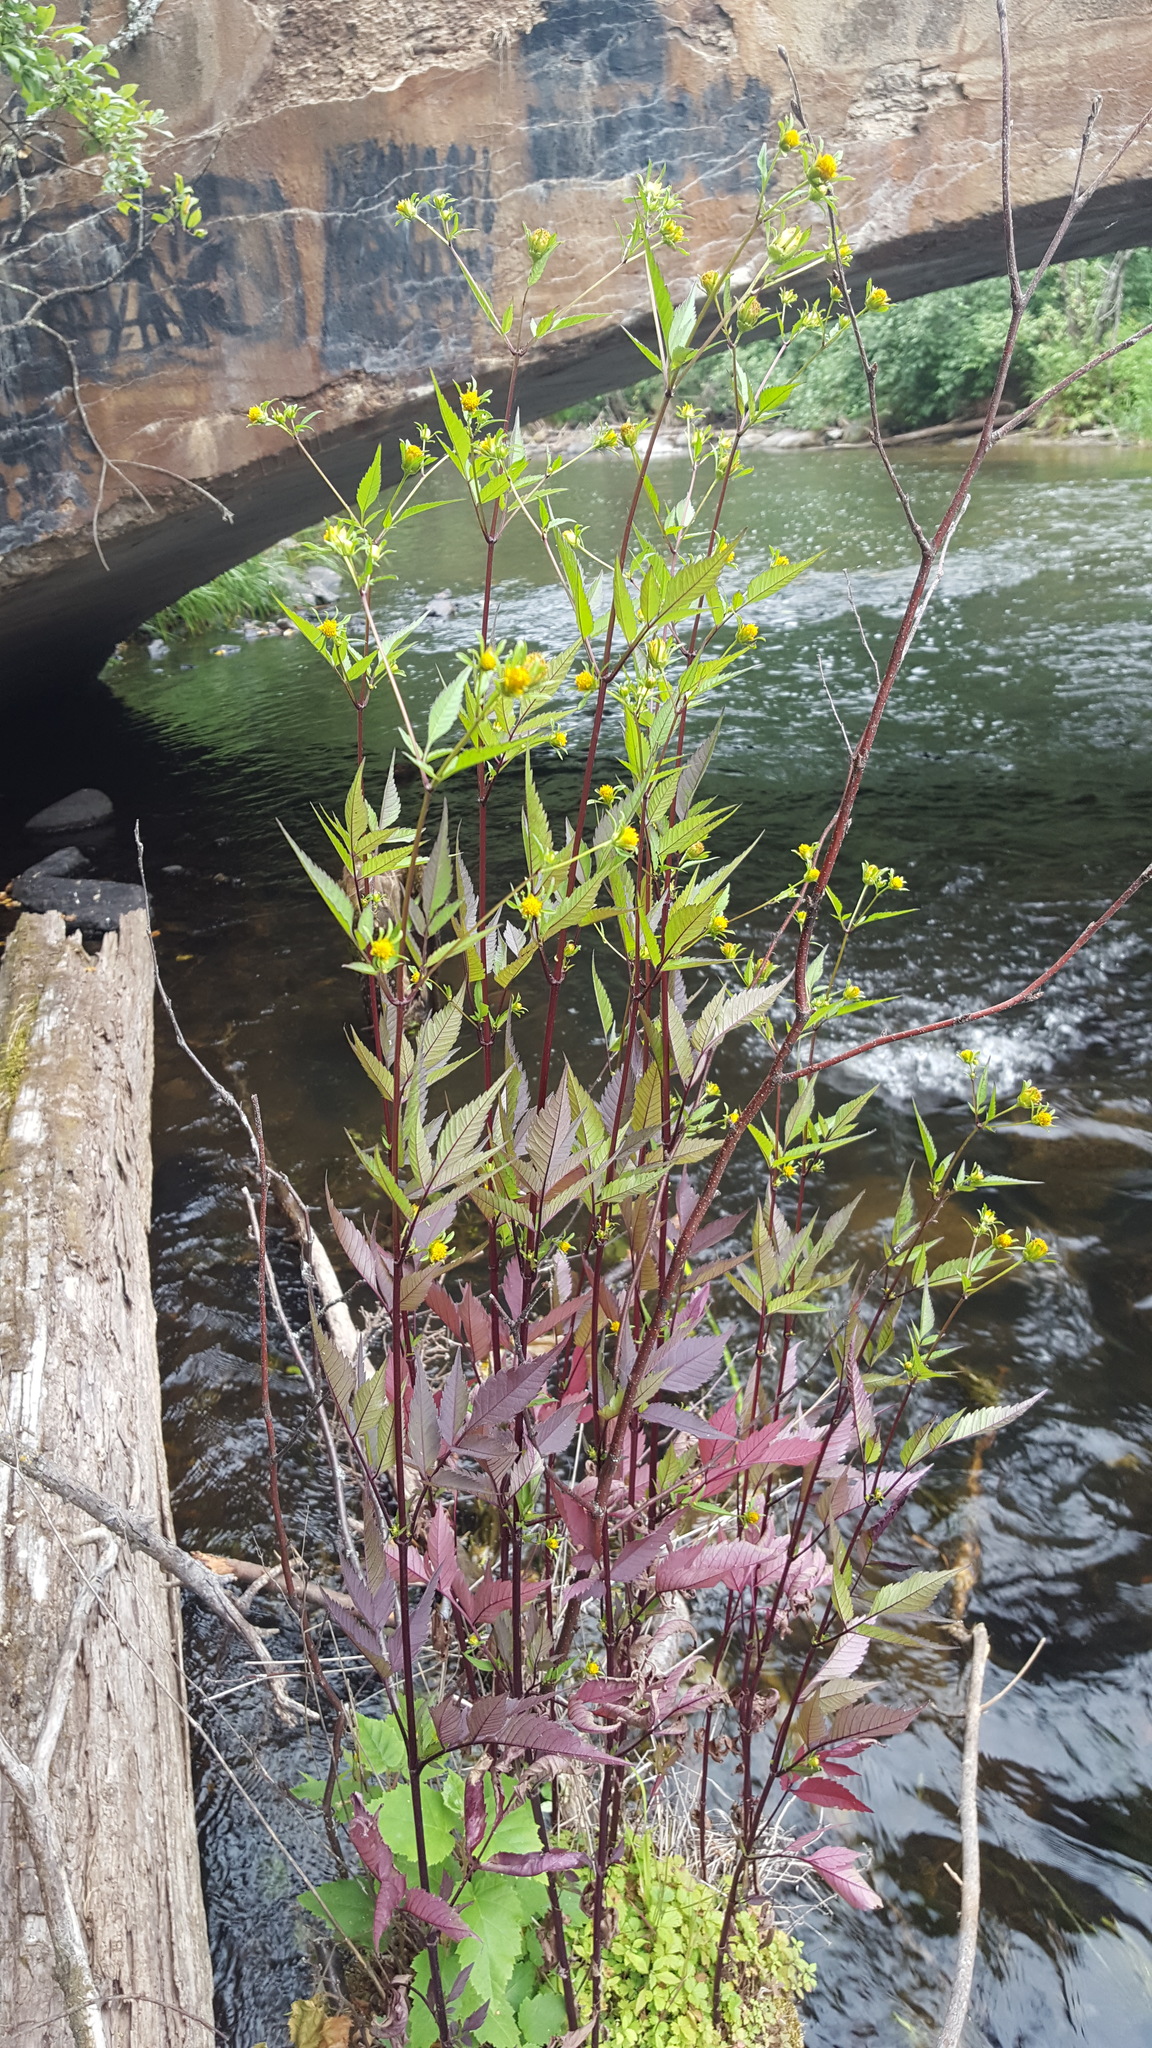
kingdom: Plantae
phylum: Tracheophyta
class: Magnoliopsida
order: Asterales
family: Asteraceae
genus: Bidens
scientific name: Bidens frondosa
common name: Beggarticks
